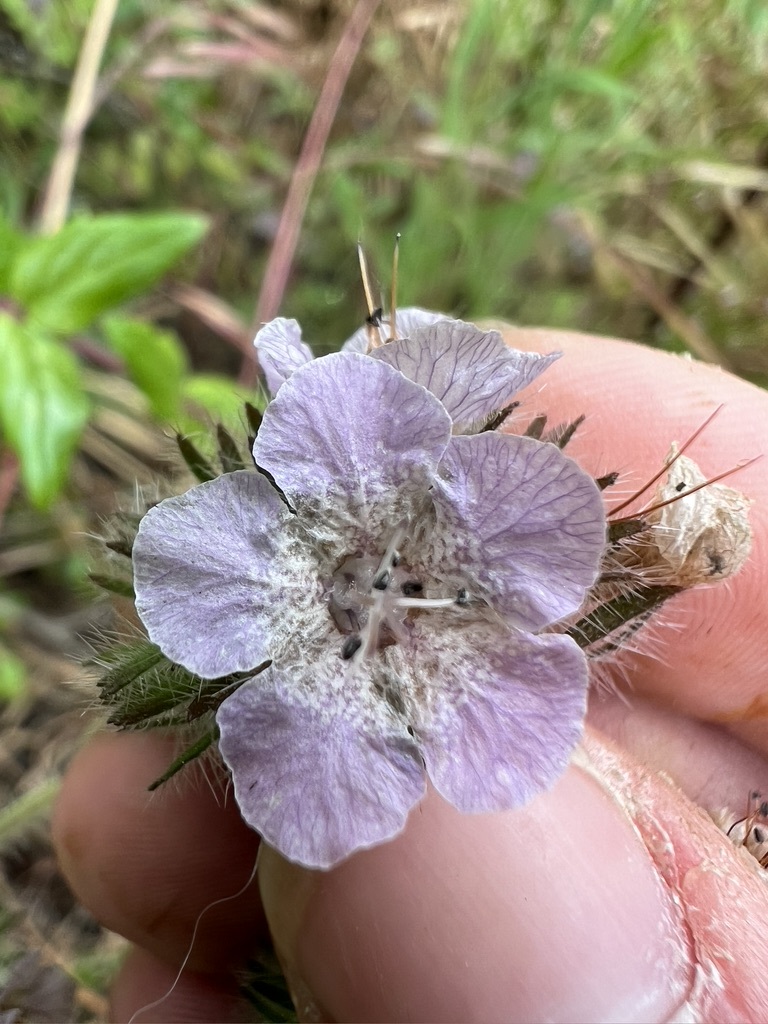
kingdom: Plantae
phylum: Tracheophyta
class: Magnoliopsida
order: Boraginales
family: Hydrophyllaceae
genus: Phacelia
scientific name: Phacelia cicutaria
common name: Caterpillar phacelia
